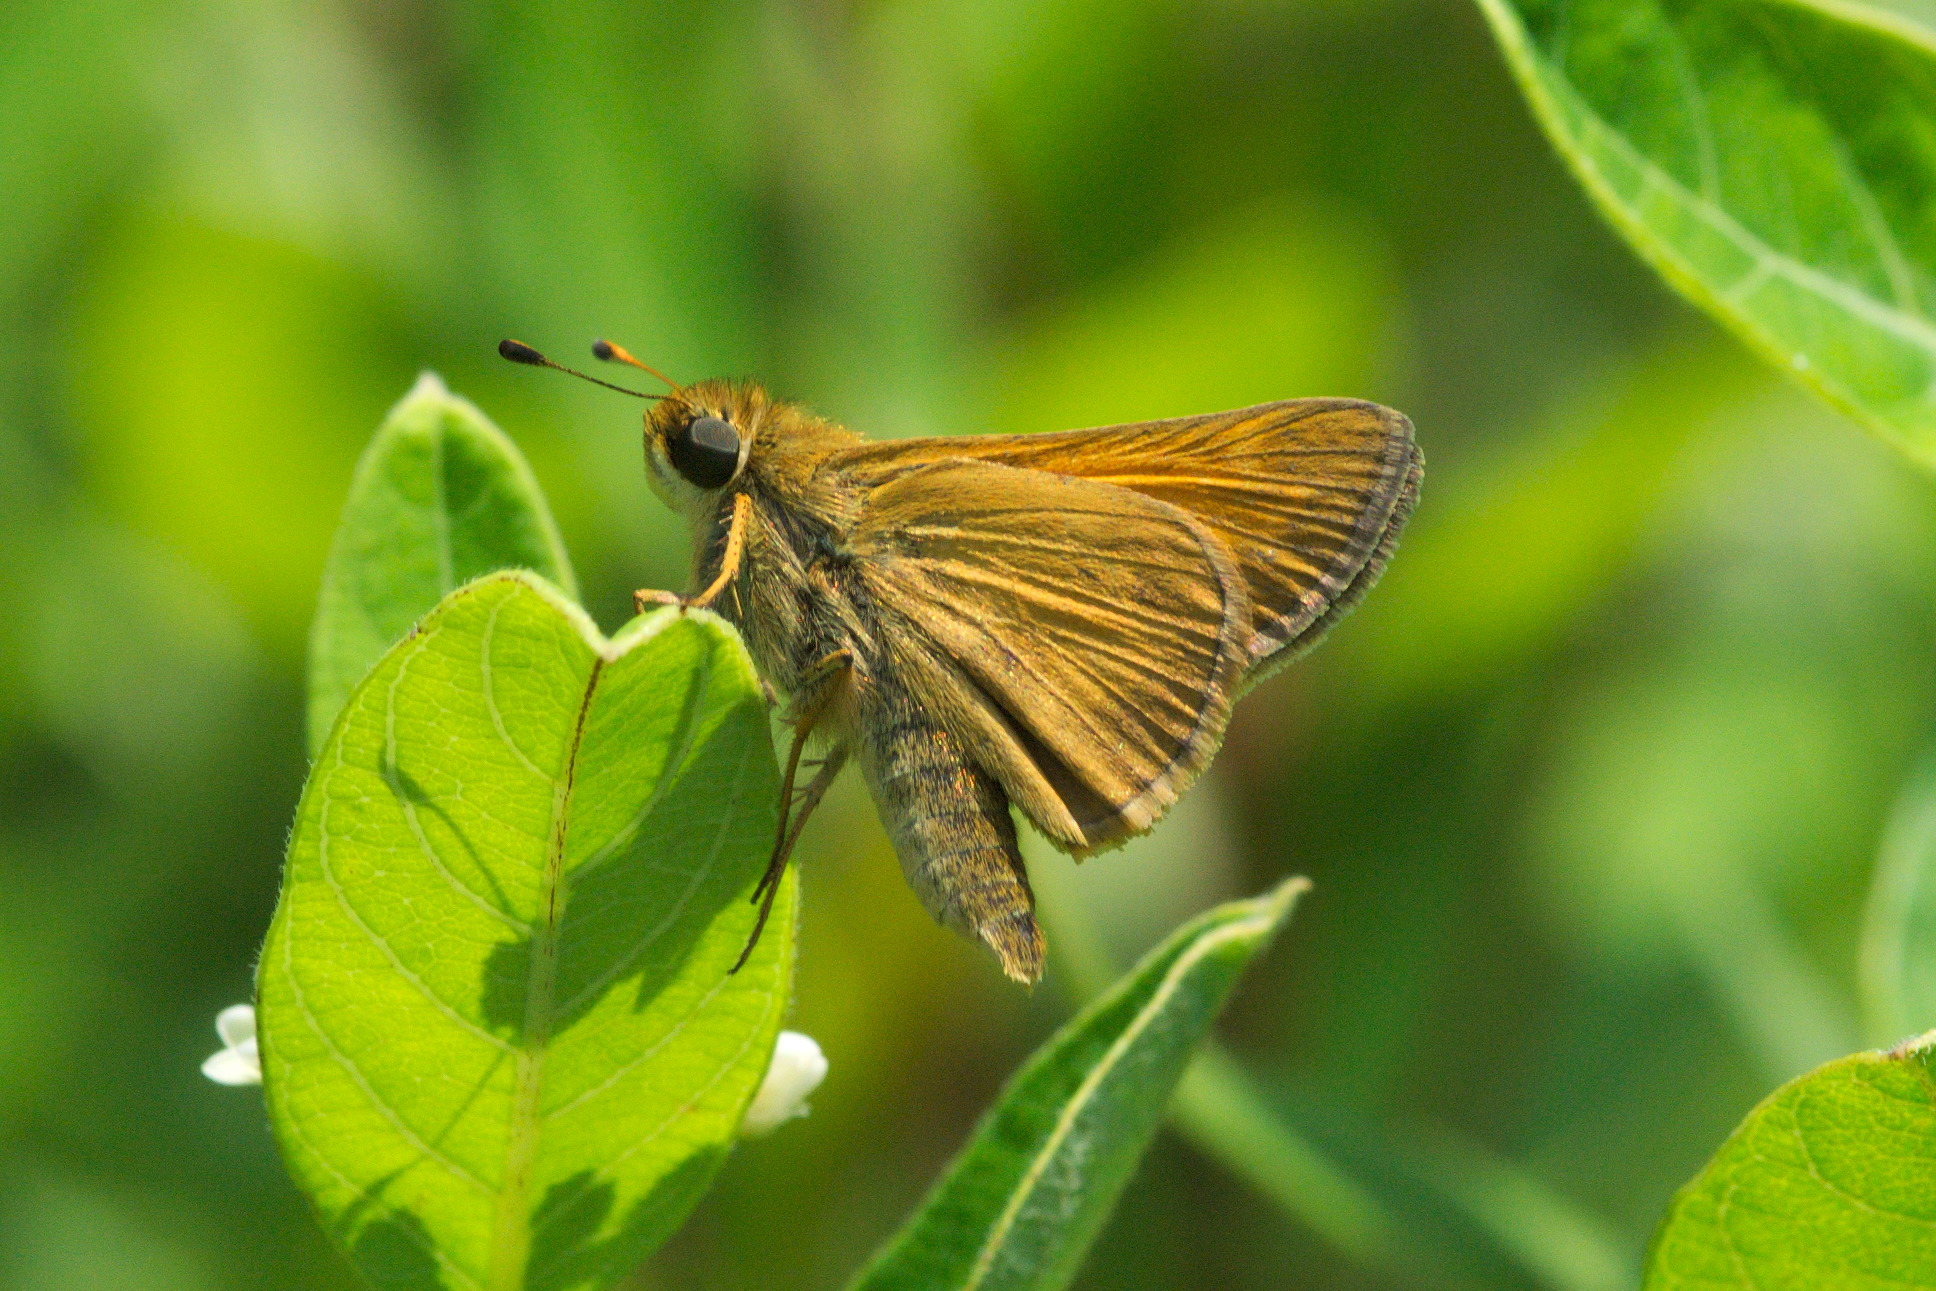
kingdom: Animalia
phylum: Arthropoda
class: Insecta
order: Lepidoptera
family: Hesperiidae
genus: Atalopedes
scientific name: Atalopedes
